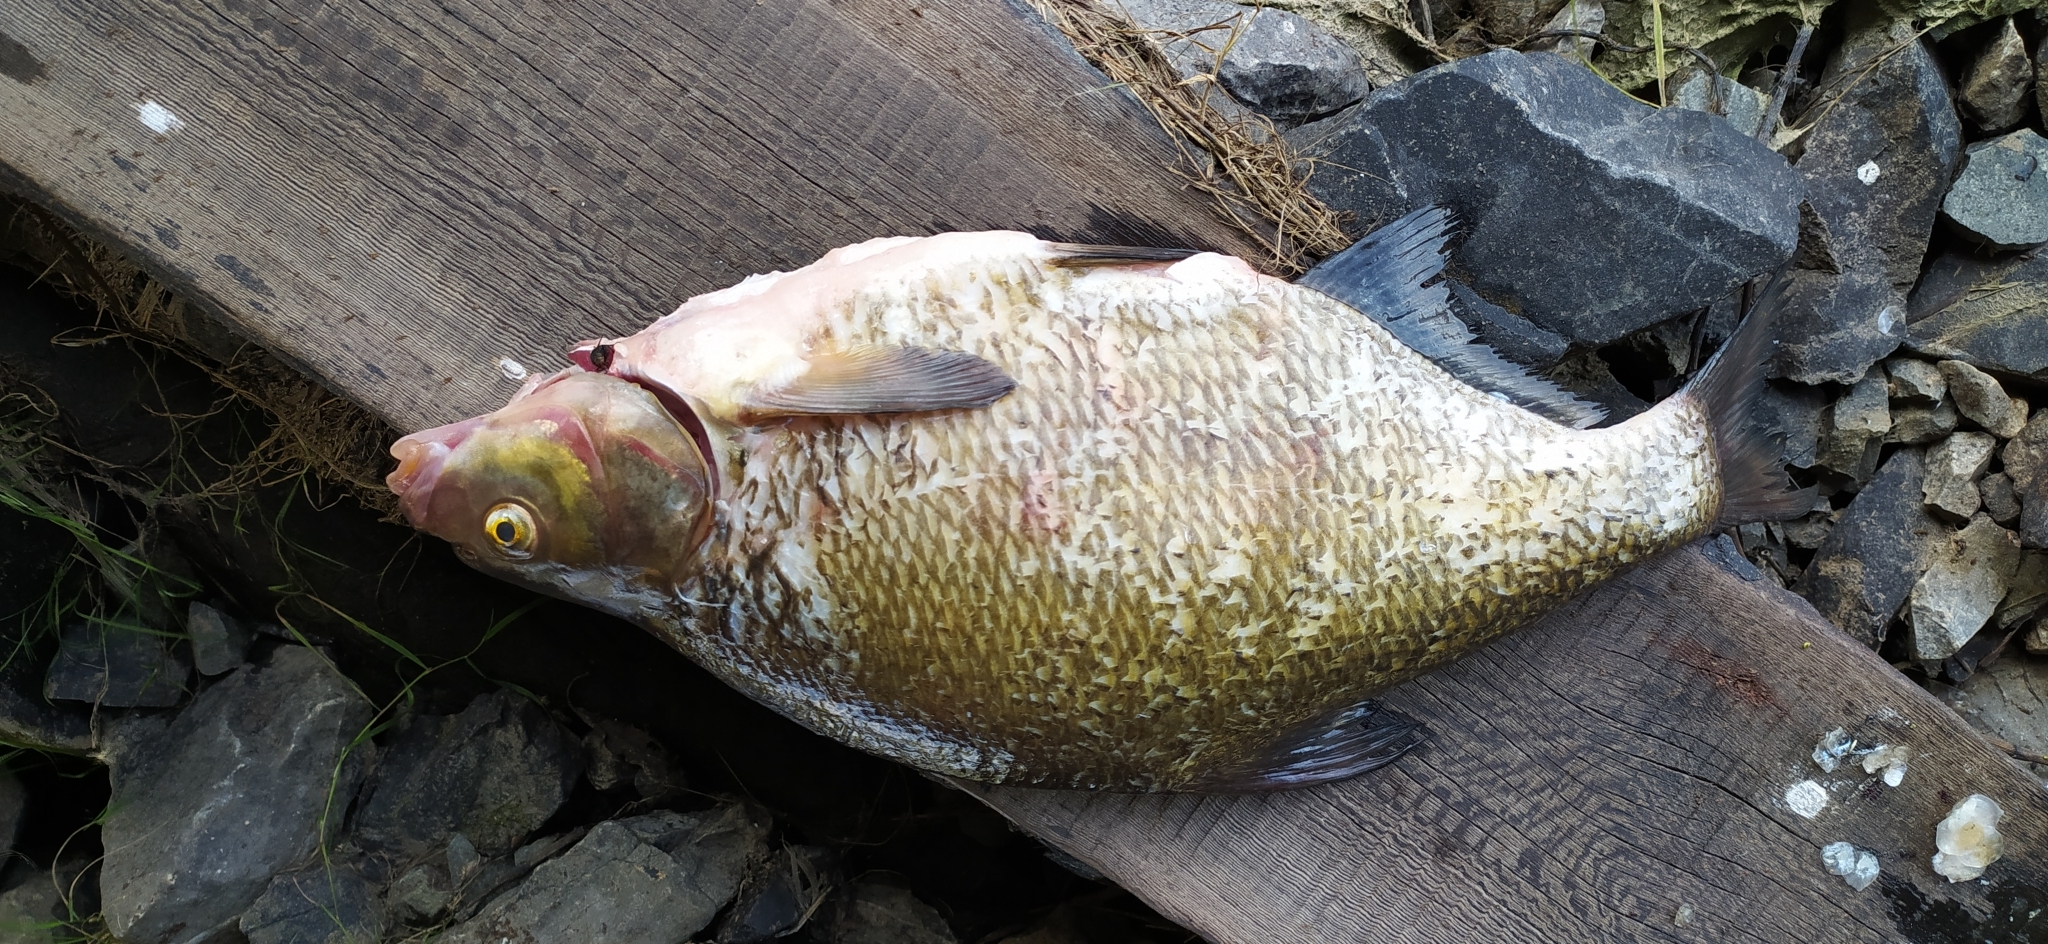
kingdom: Animalia
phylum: Chordata
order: Cypriniformes
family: Cyprinidae
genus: Abramis
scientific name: Abramis brama
